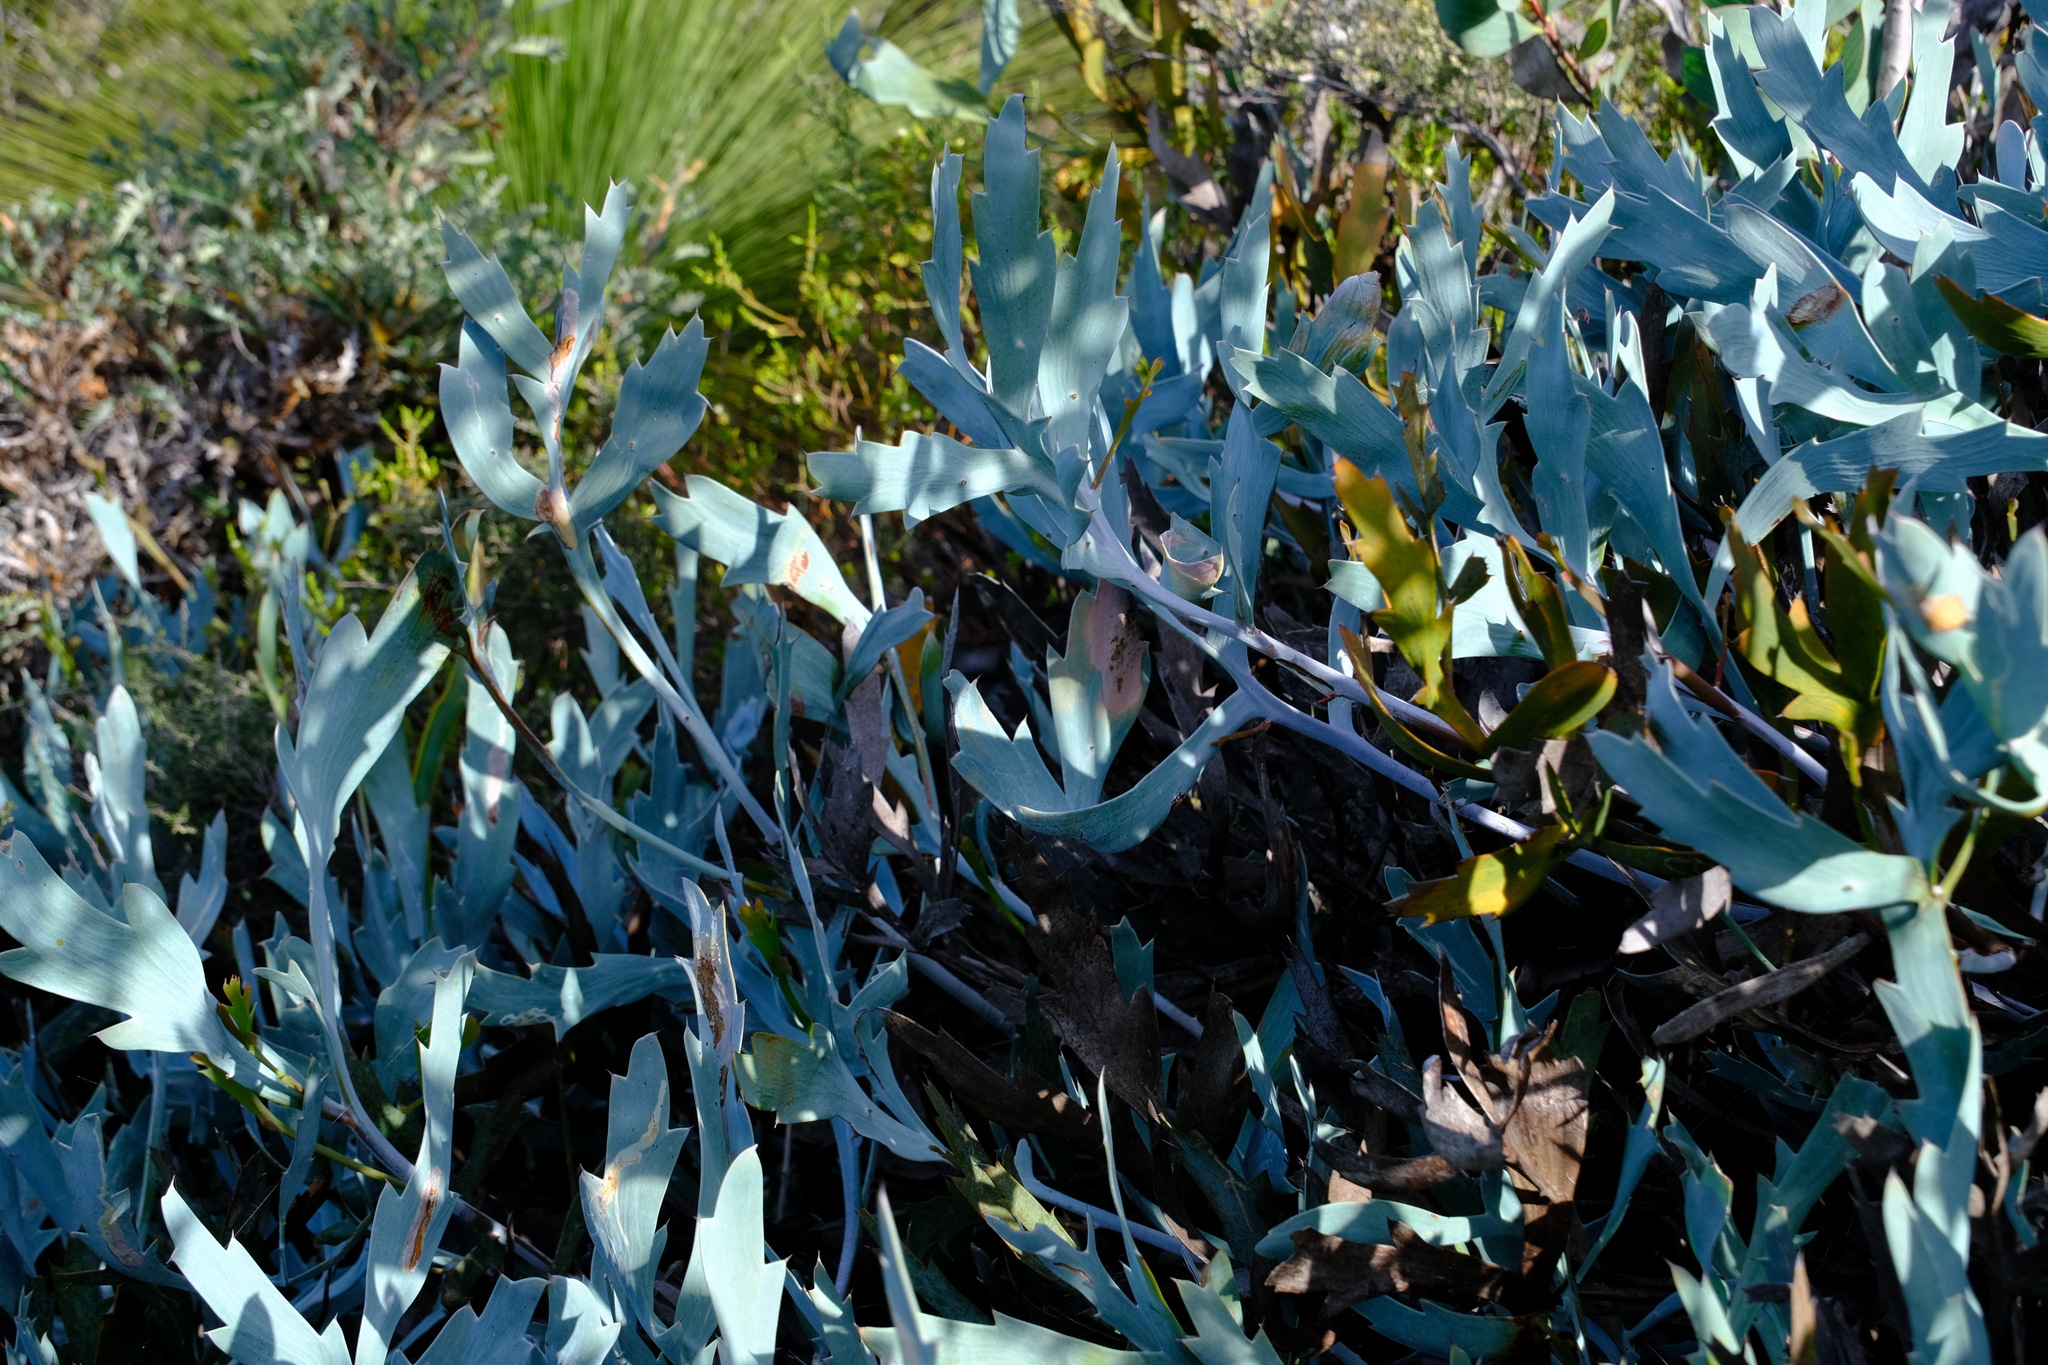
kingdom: Plantae
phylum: Tracheophyta
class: Magnoliopsida
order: Fabales
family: Fabaceae
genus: Daviesia
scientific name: Daviesia epiphyllum
